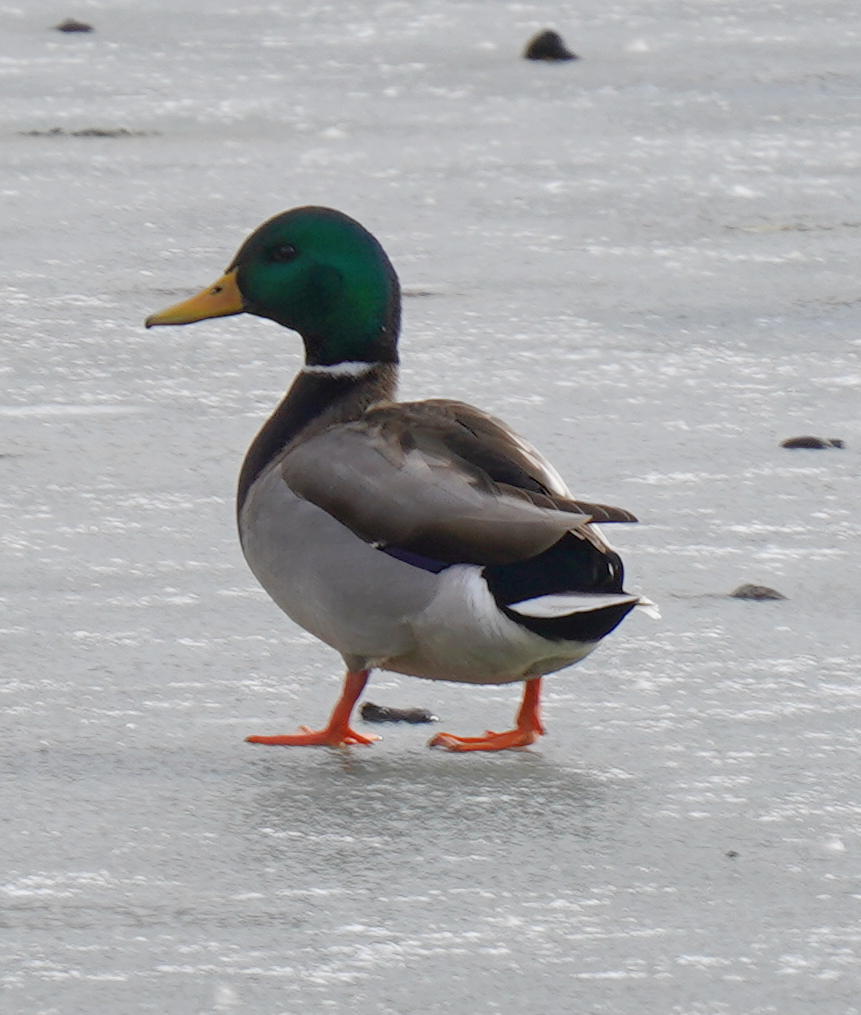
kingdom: Animalia
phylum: Chordata
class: Aves
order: Anseriformes
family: Anatidae
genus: Anas
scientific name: Anas platyrhynchos
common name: Mallard
